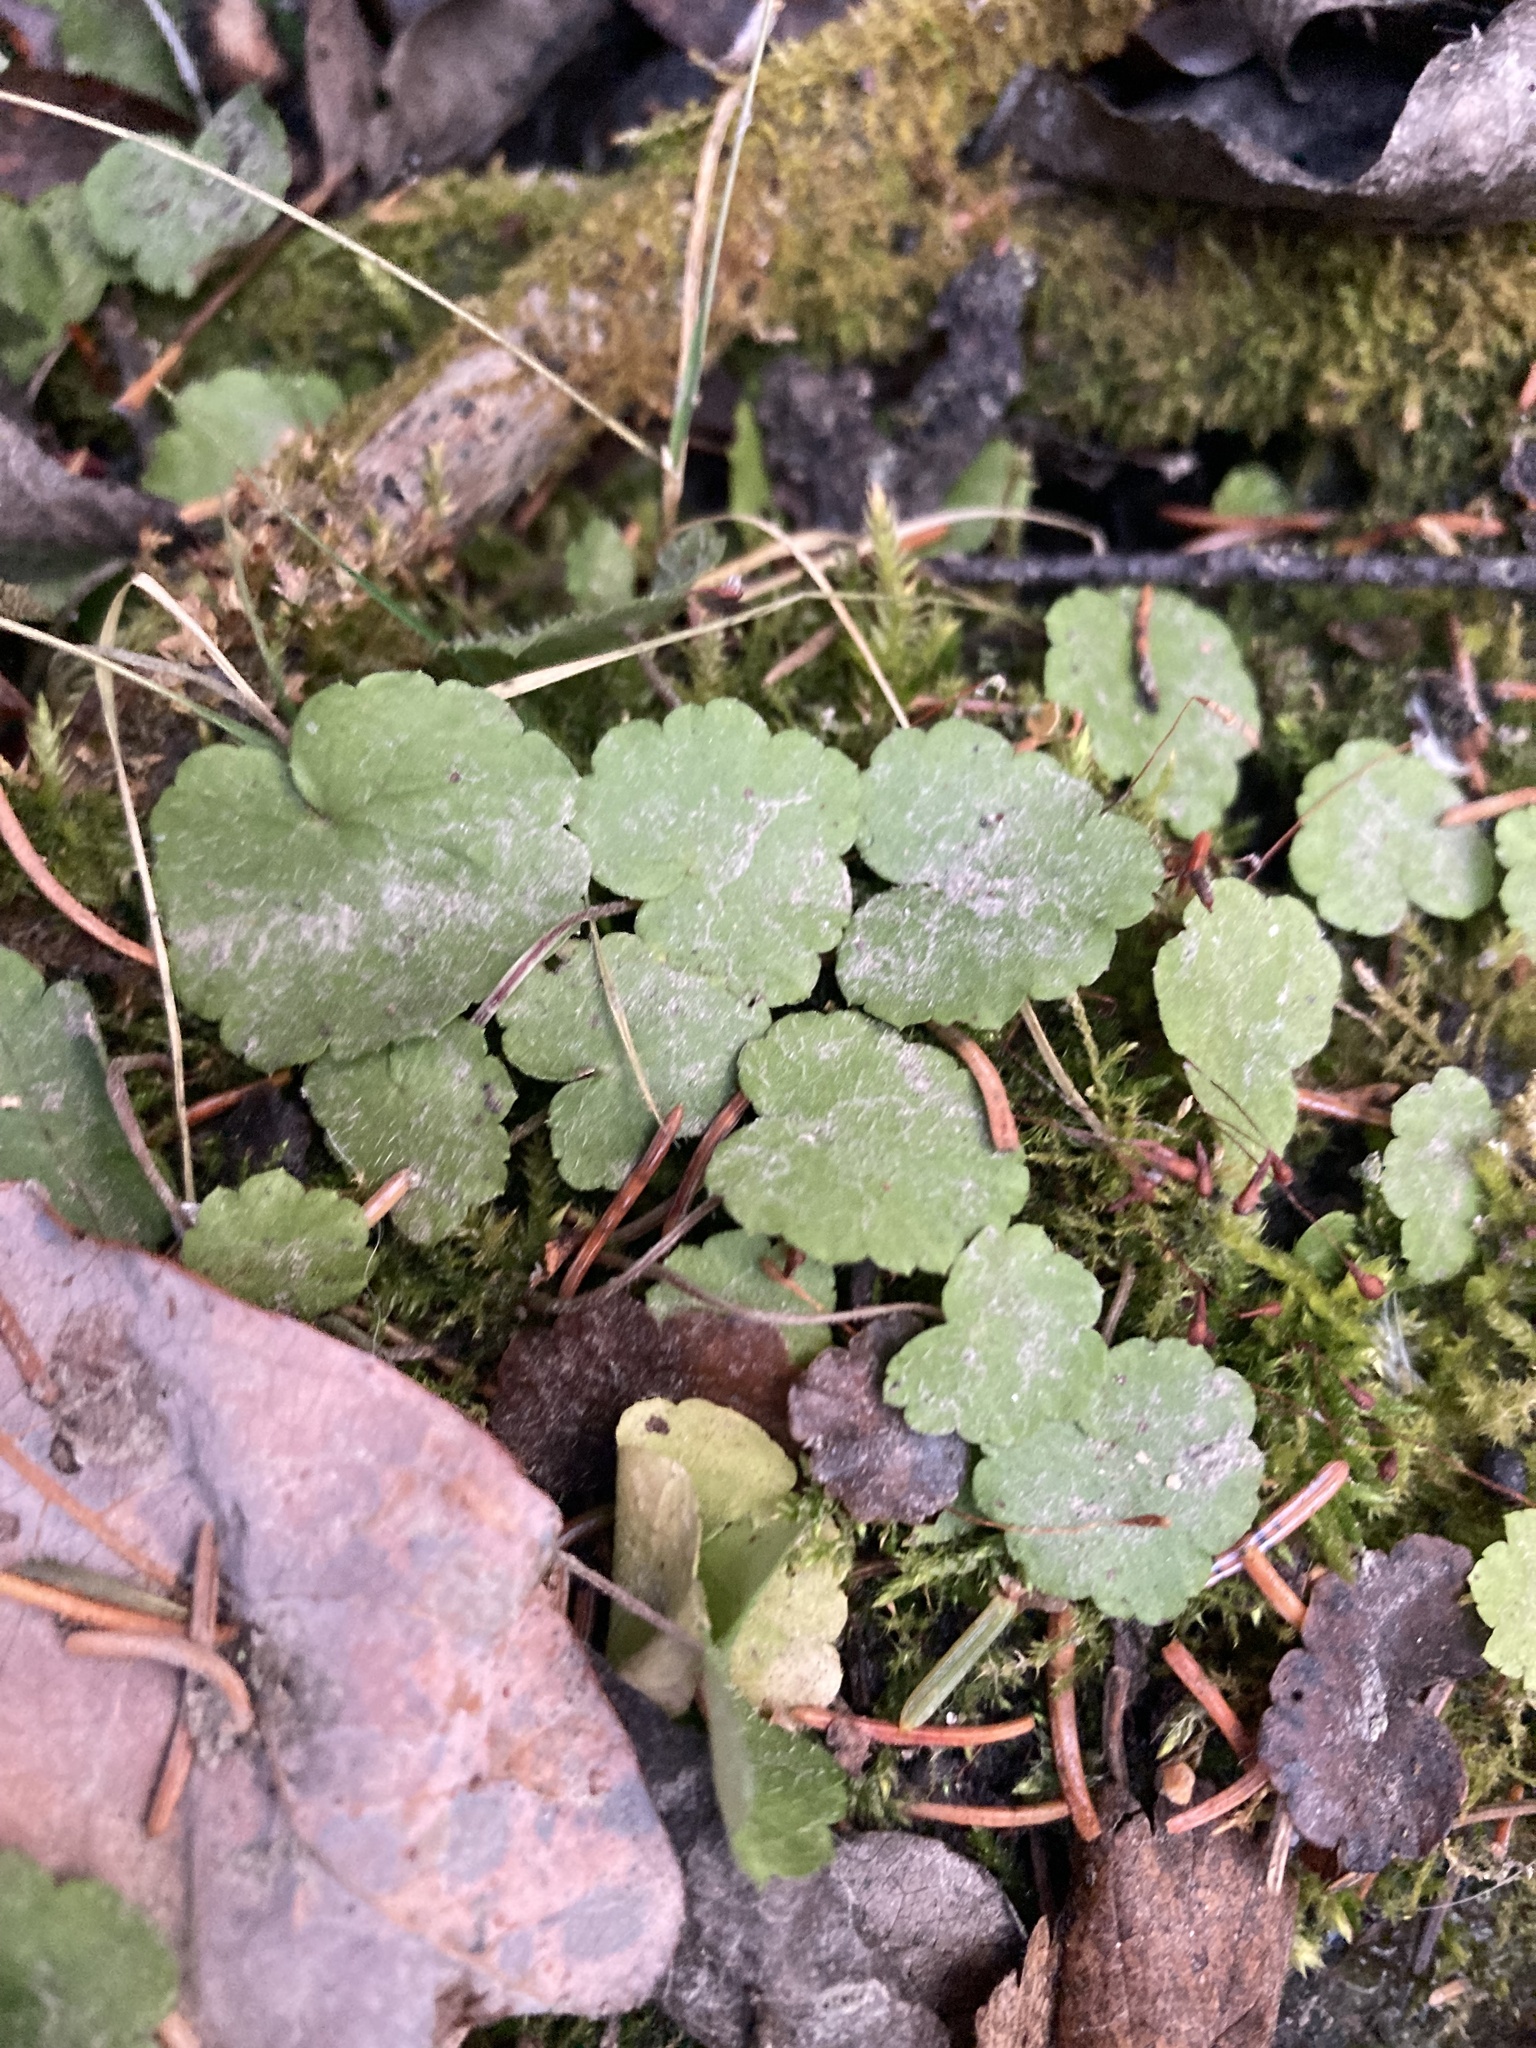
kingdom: Plantae
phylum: Tracheophyta
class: Magnoliopsida
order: Saxifragales
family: Saxifragaceae
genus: Mitella
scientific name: Mitella nuda
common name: Bare-stemmed bishop's-cap
